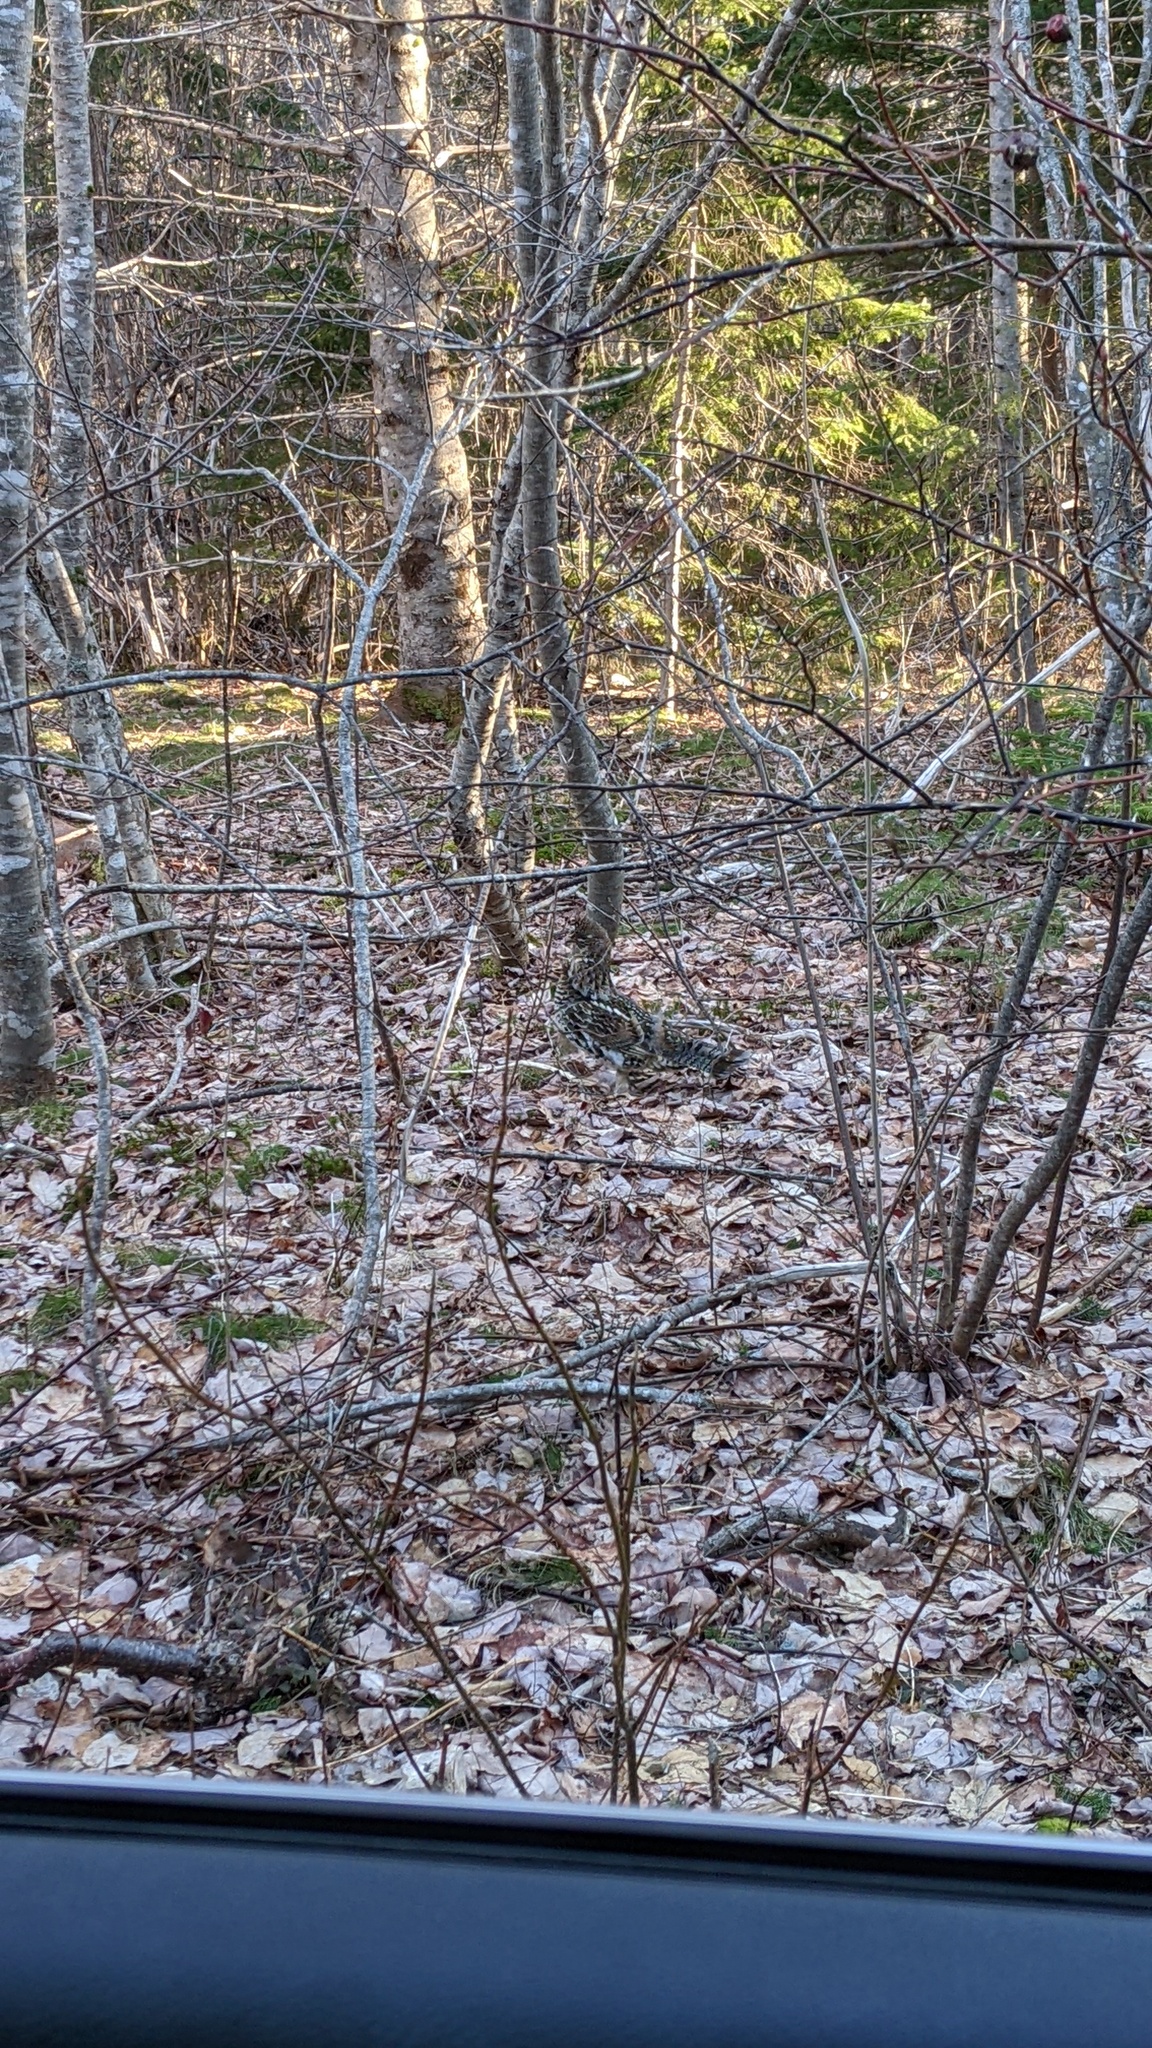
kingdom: Animalia
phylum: Chordata
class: Aves
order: Galliformes
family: Phasianidae
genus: Bonasa
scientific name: Bonasa umbellus
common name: Ruffed grouse
